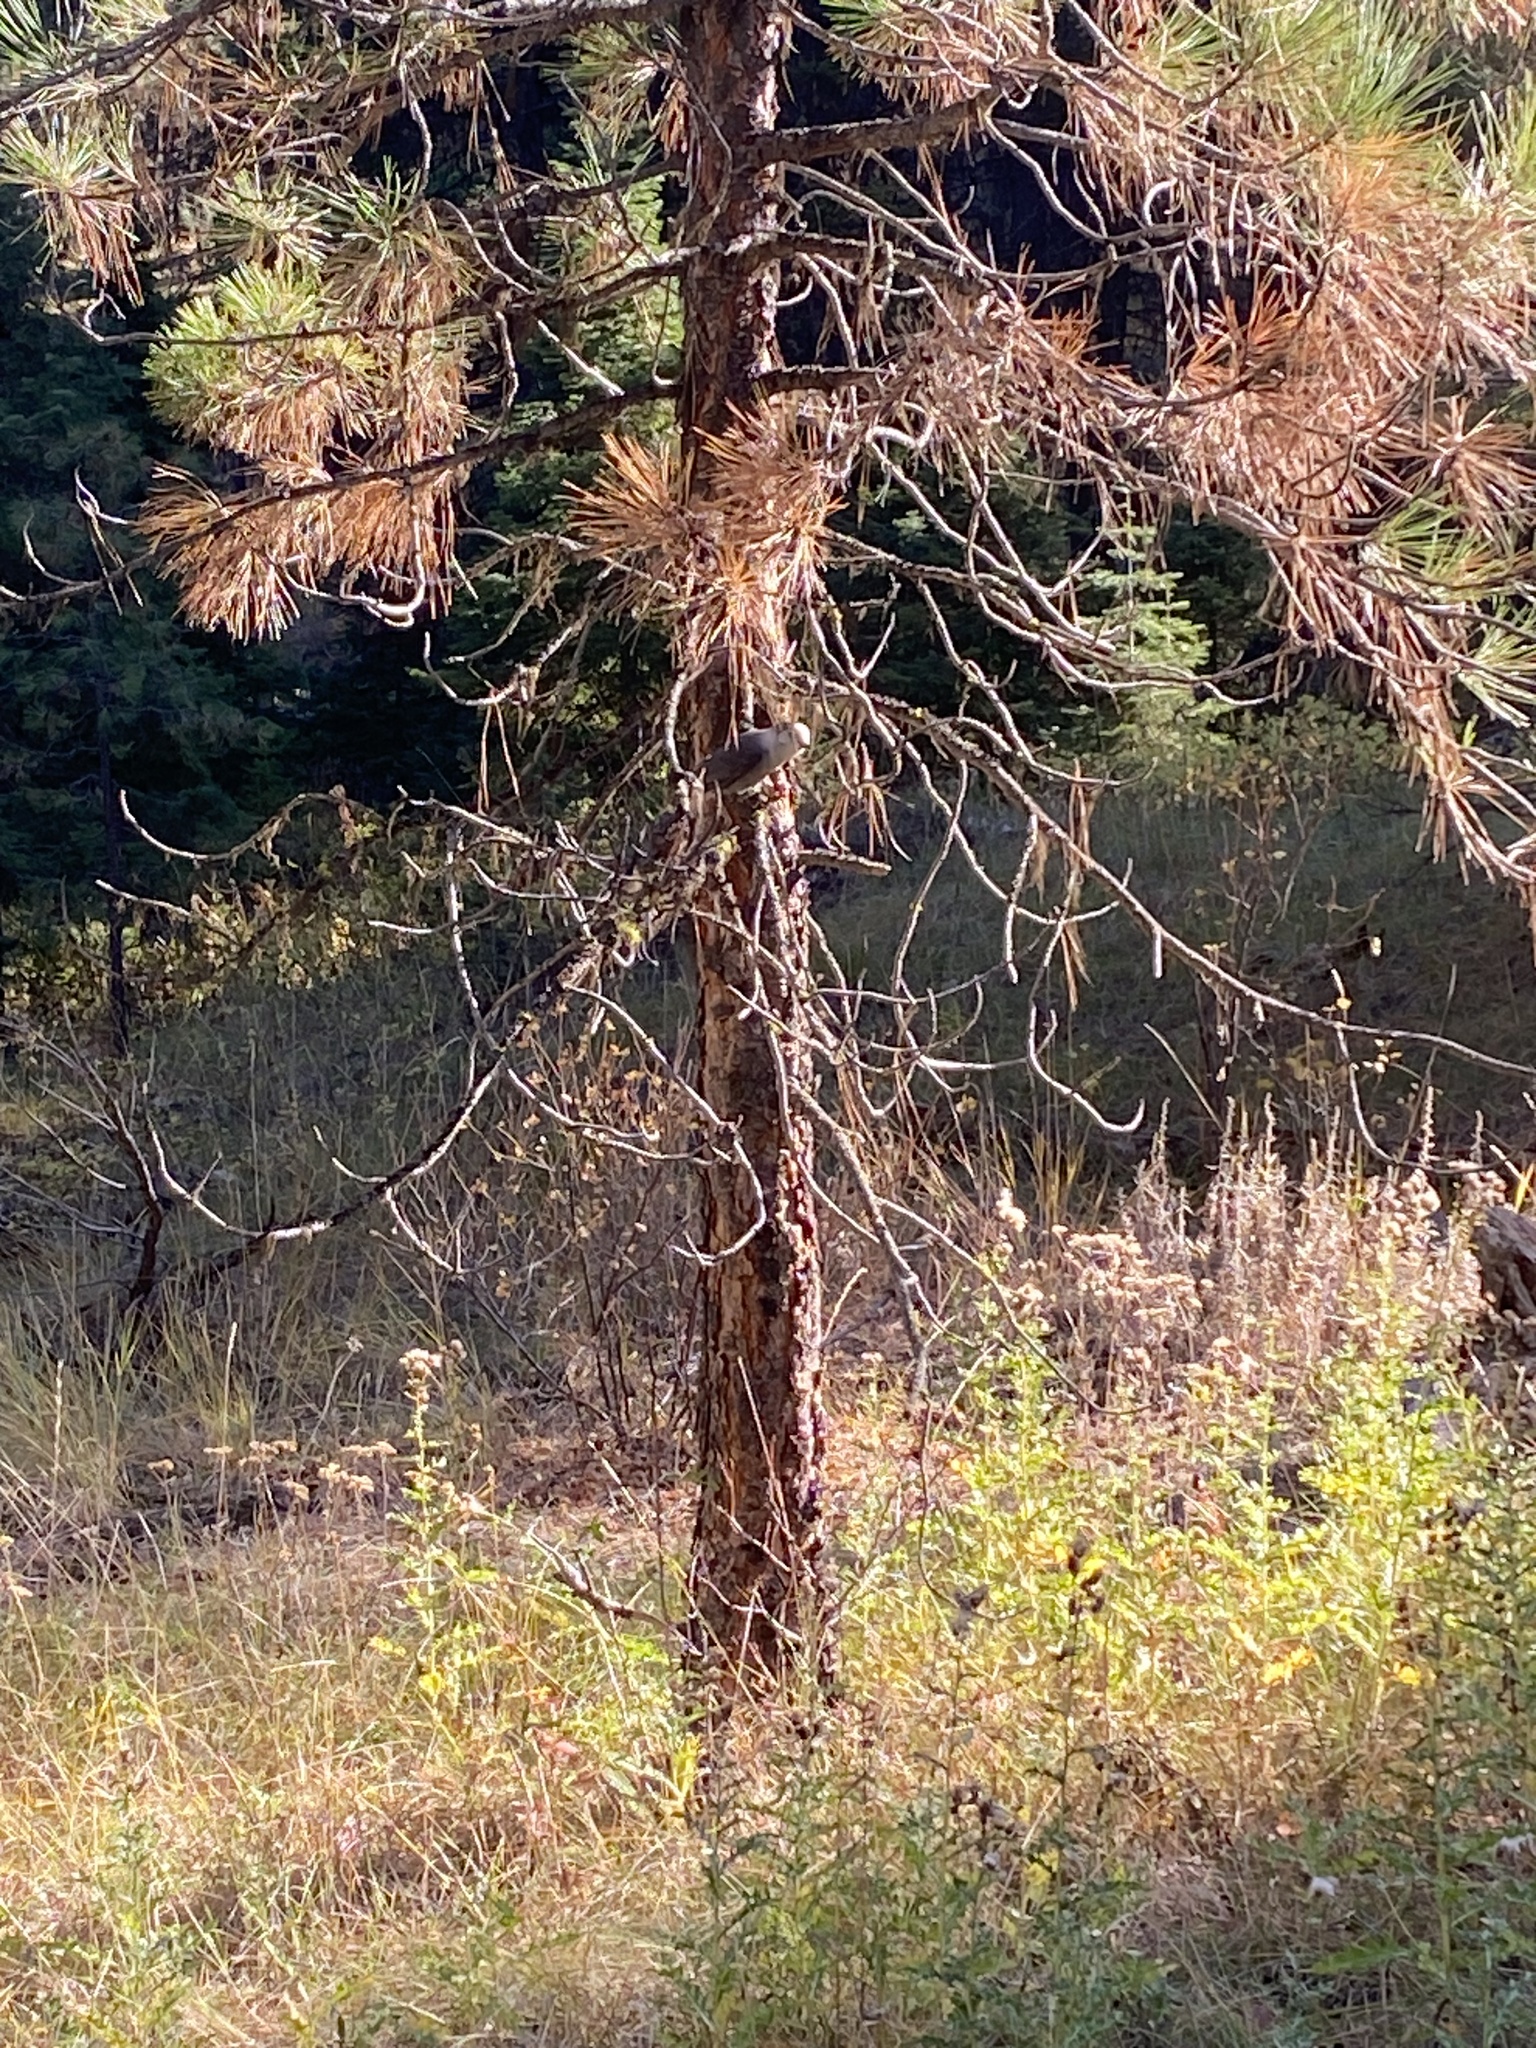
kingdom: Animalia
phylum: Chordata
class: Aves
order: Passeriformes
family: Corvidae
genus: Perisoreus
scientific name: Perisoreus canadensis
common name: Gray jay
